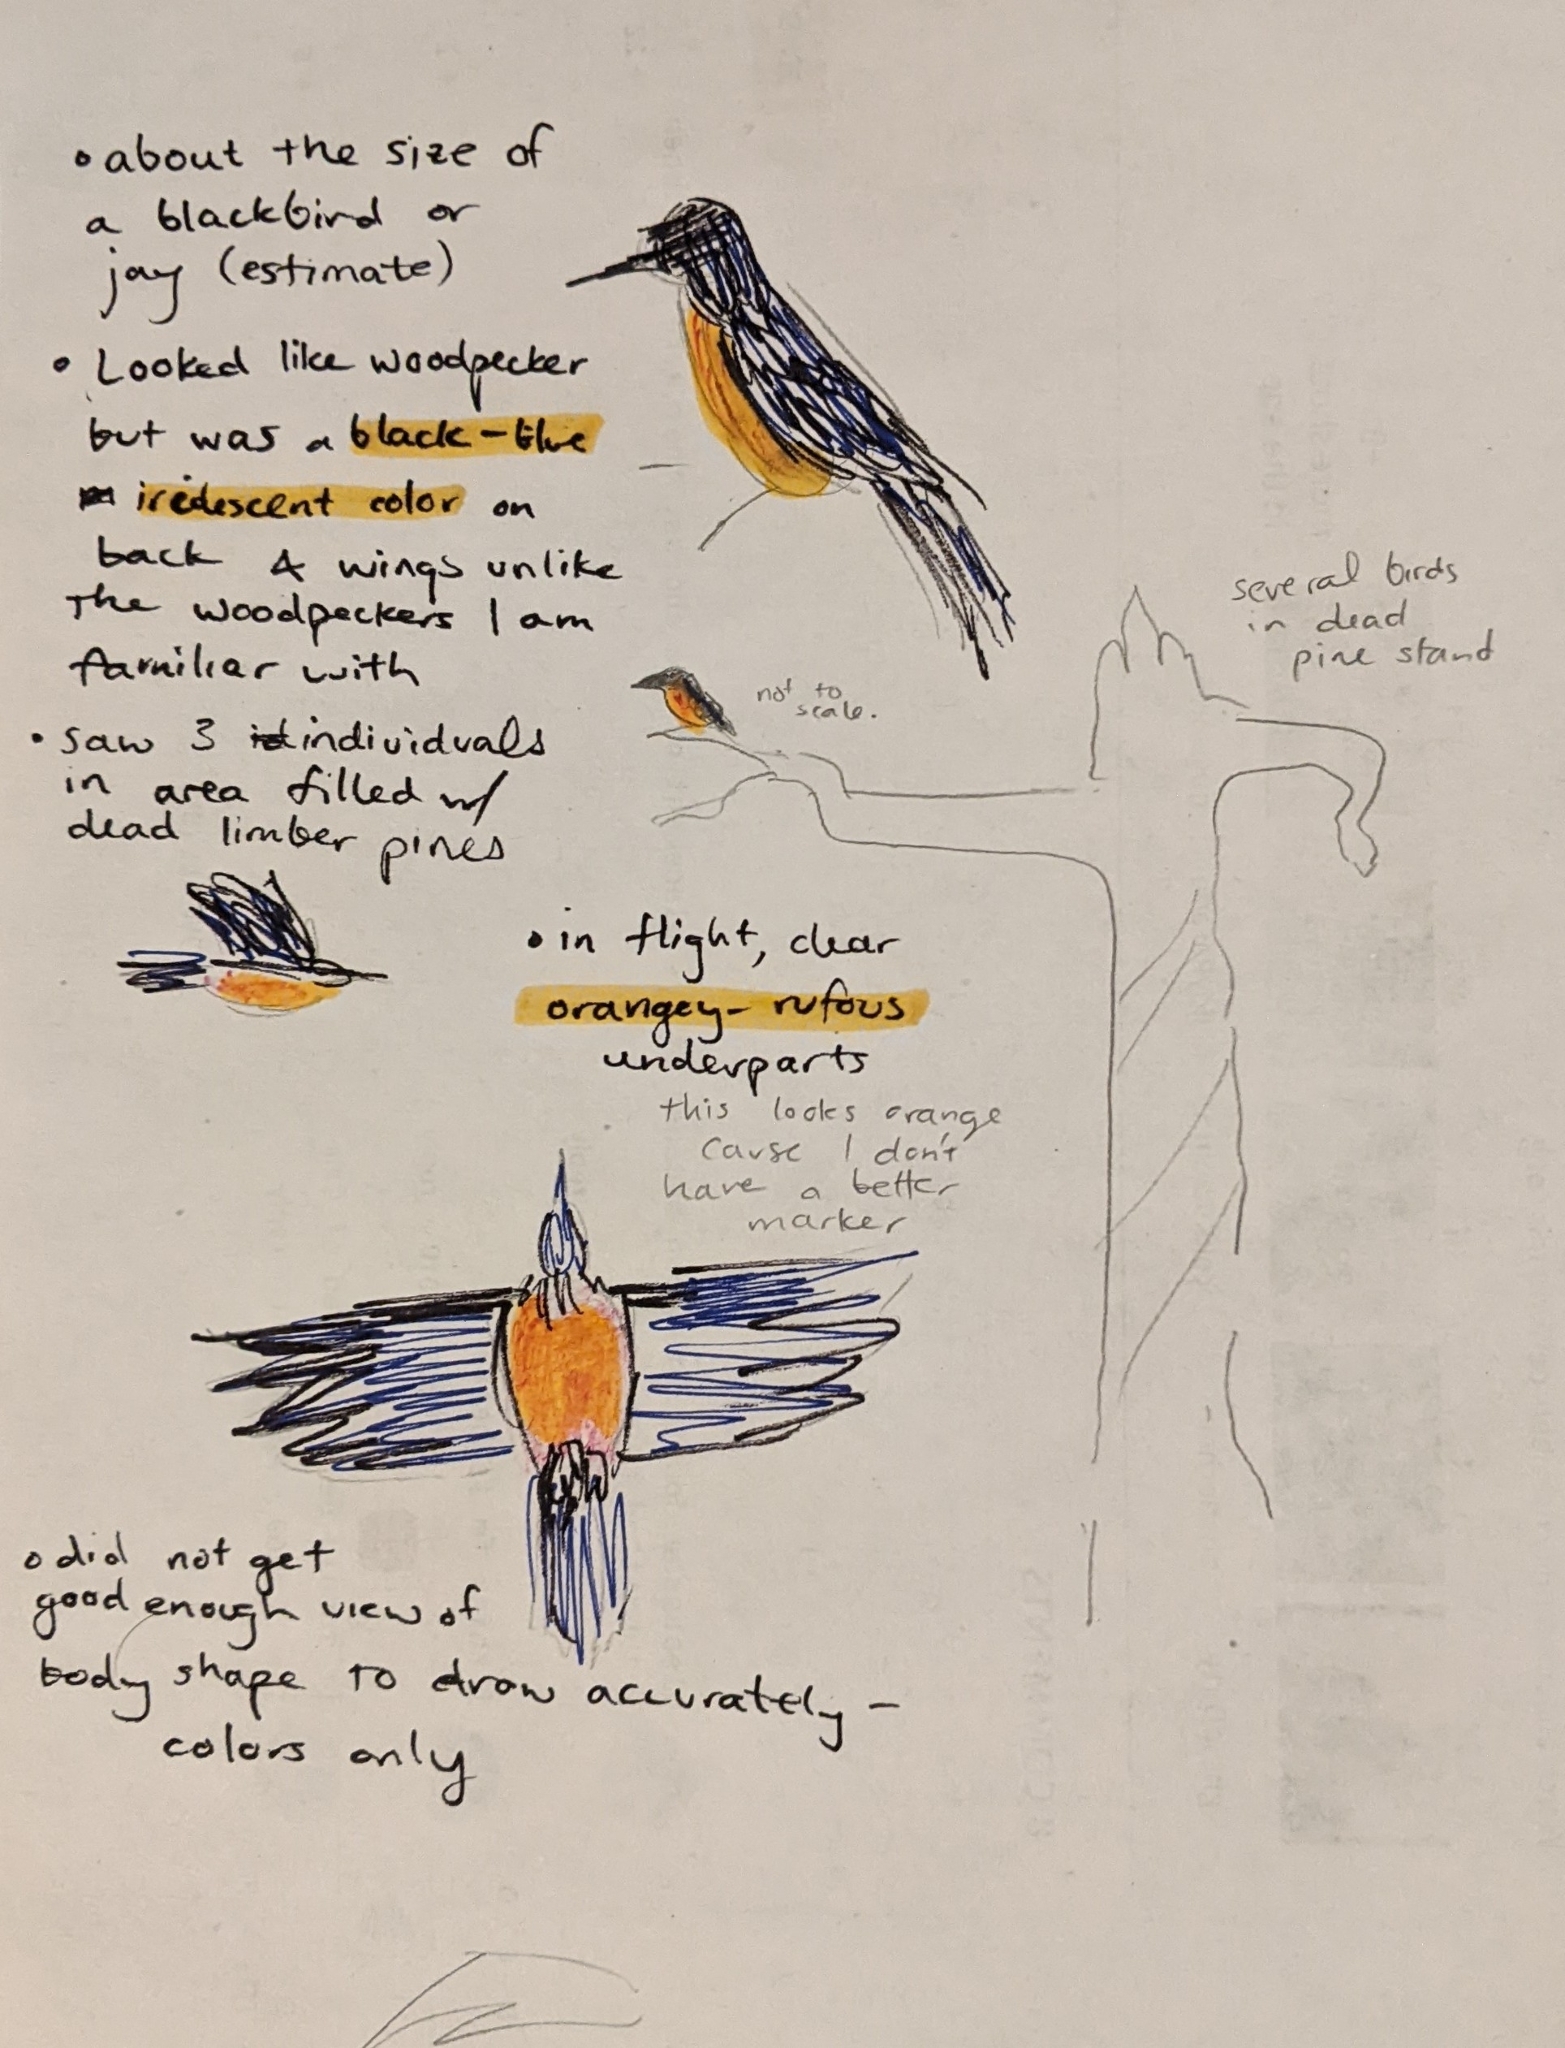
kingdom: Animalia
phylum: Chordata
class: Aves
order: Piciformes
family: Picidae
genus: Melanerpes
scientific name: Melanerpes lewis
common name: Lewis's woodpecker
